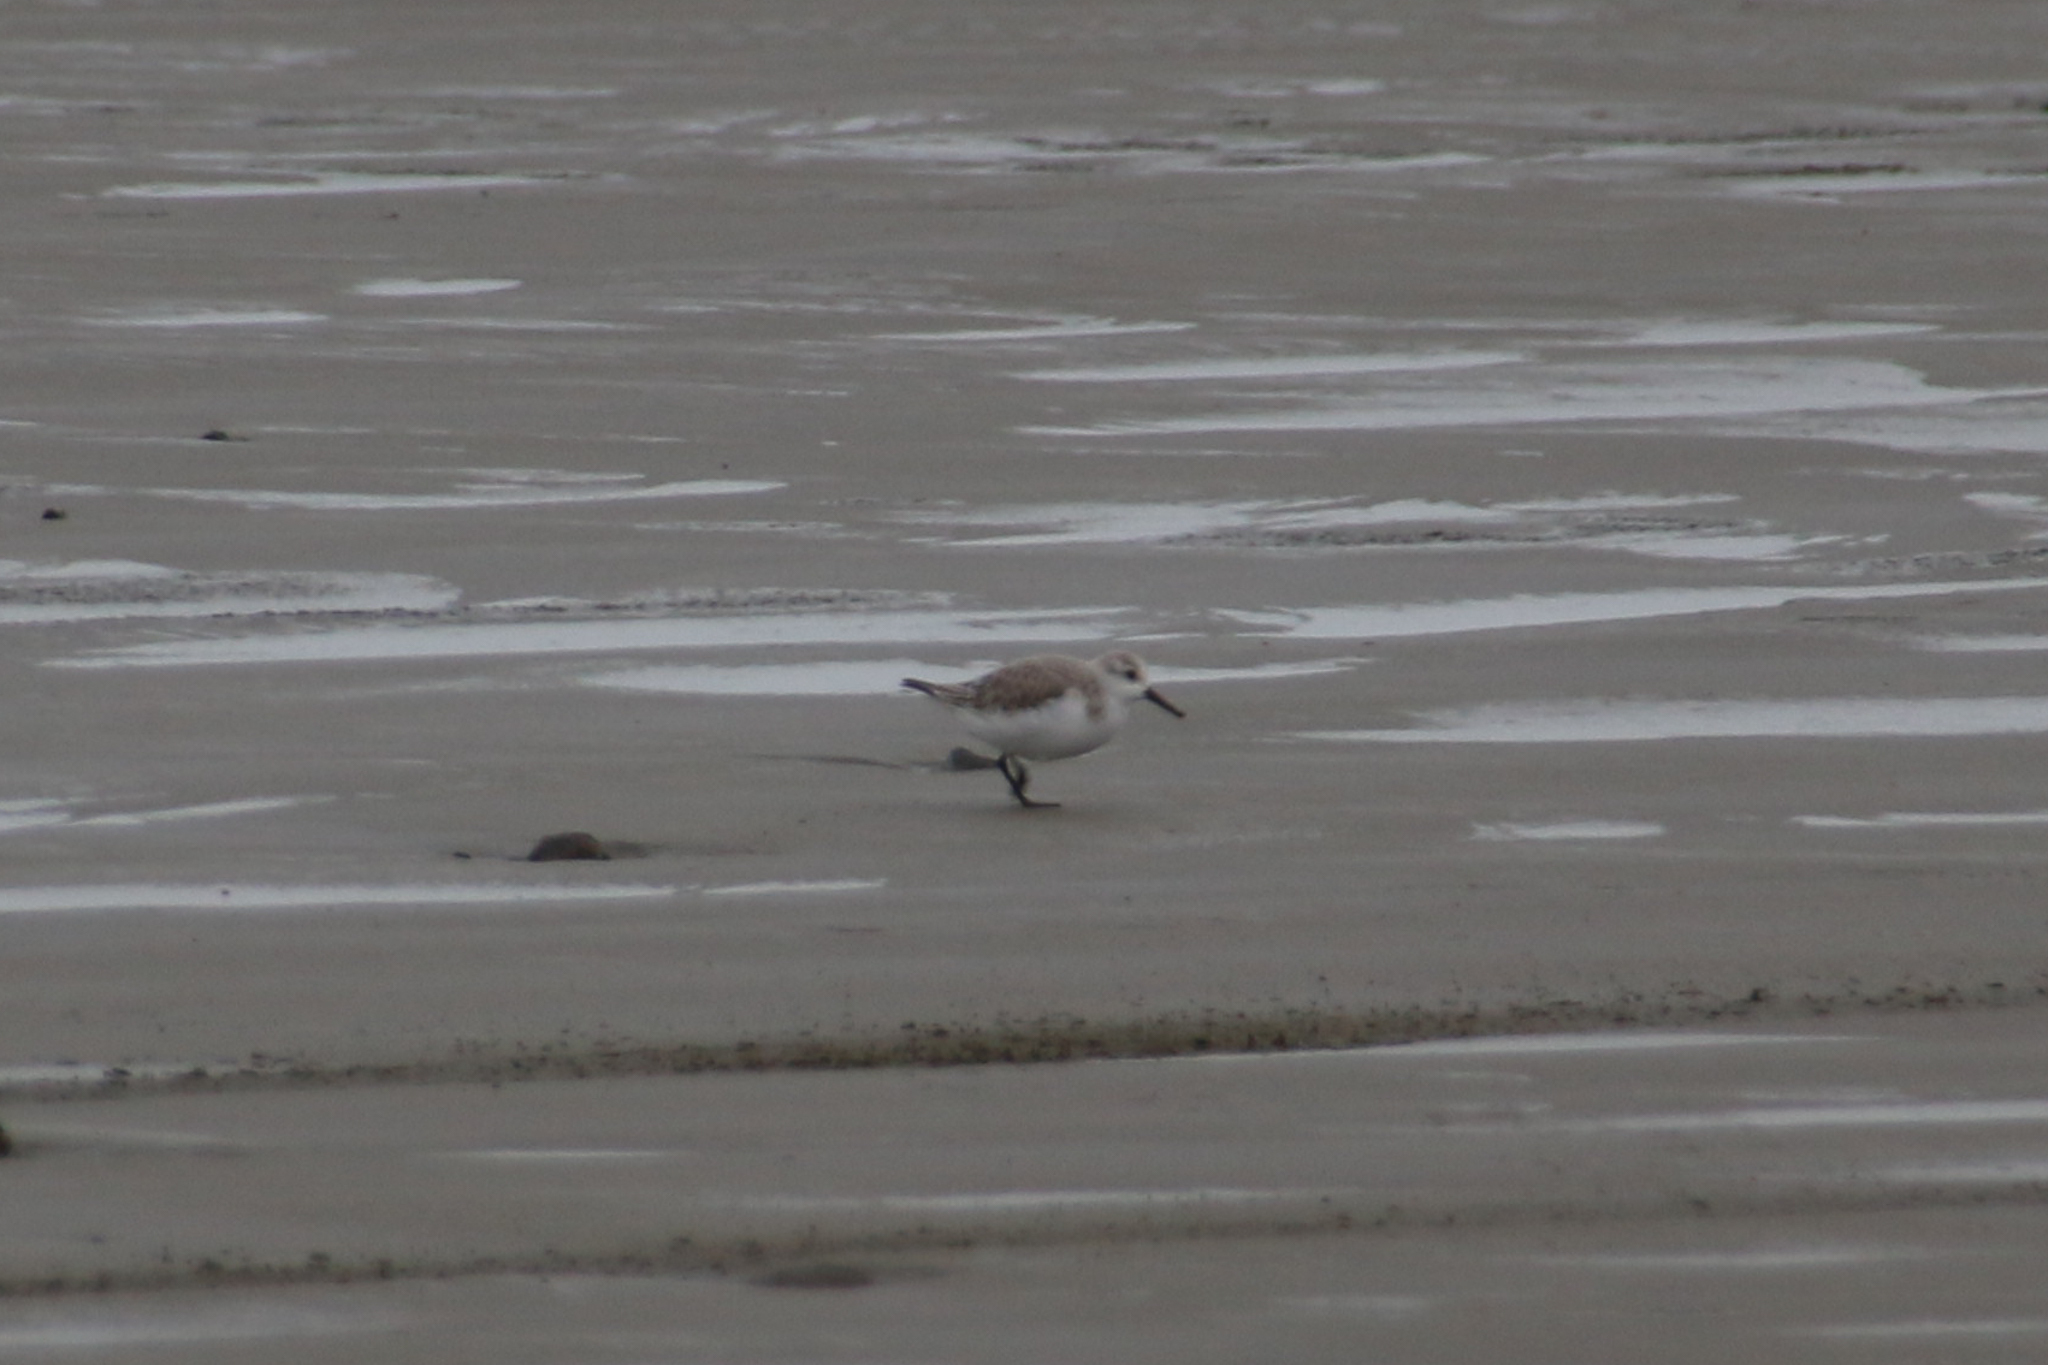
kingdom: Animalia
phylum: Chordata
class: Aves
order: Charadriiformes
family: Scolopacidae
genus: Calidris
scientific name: Calidris alba
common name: Sanderling
